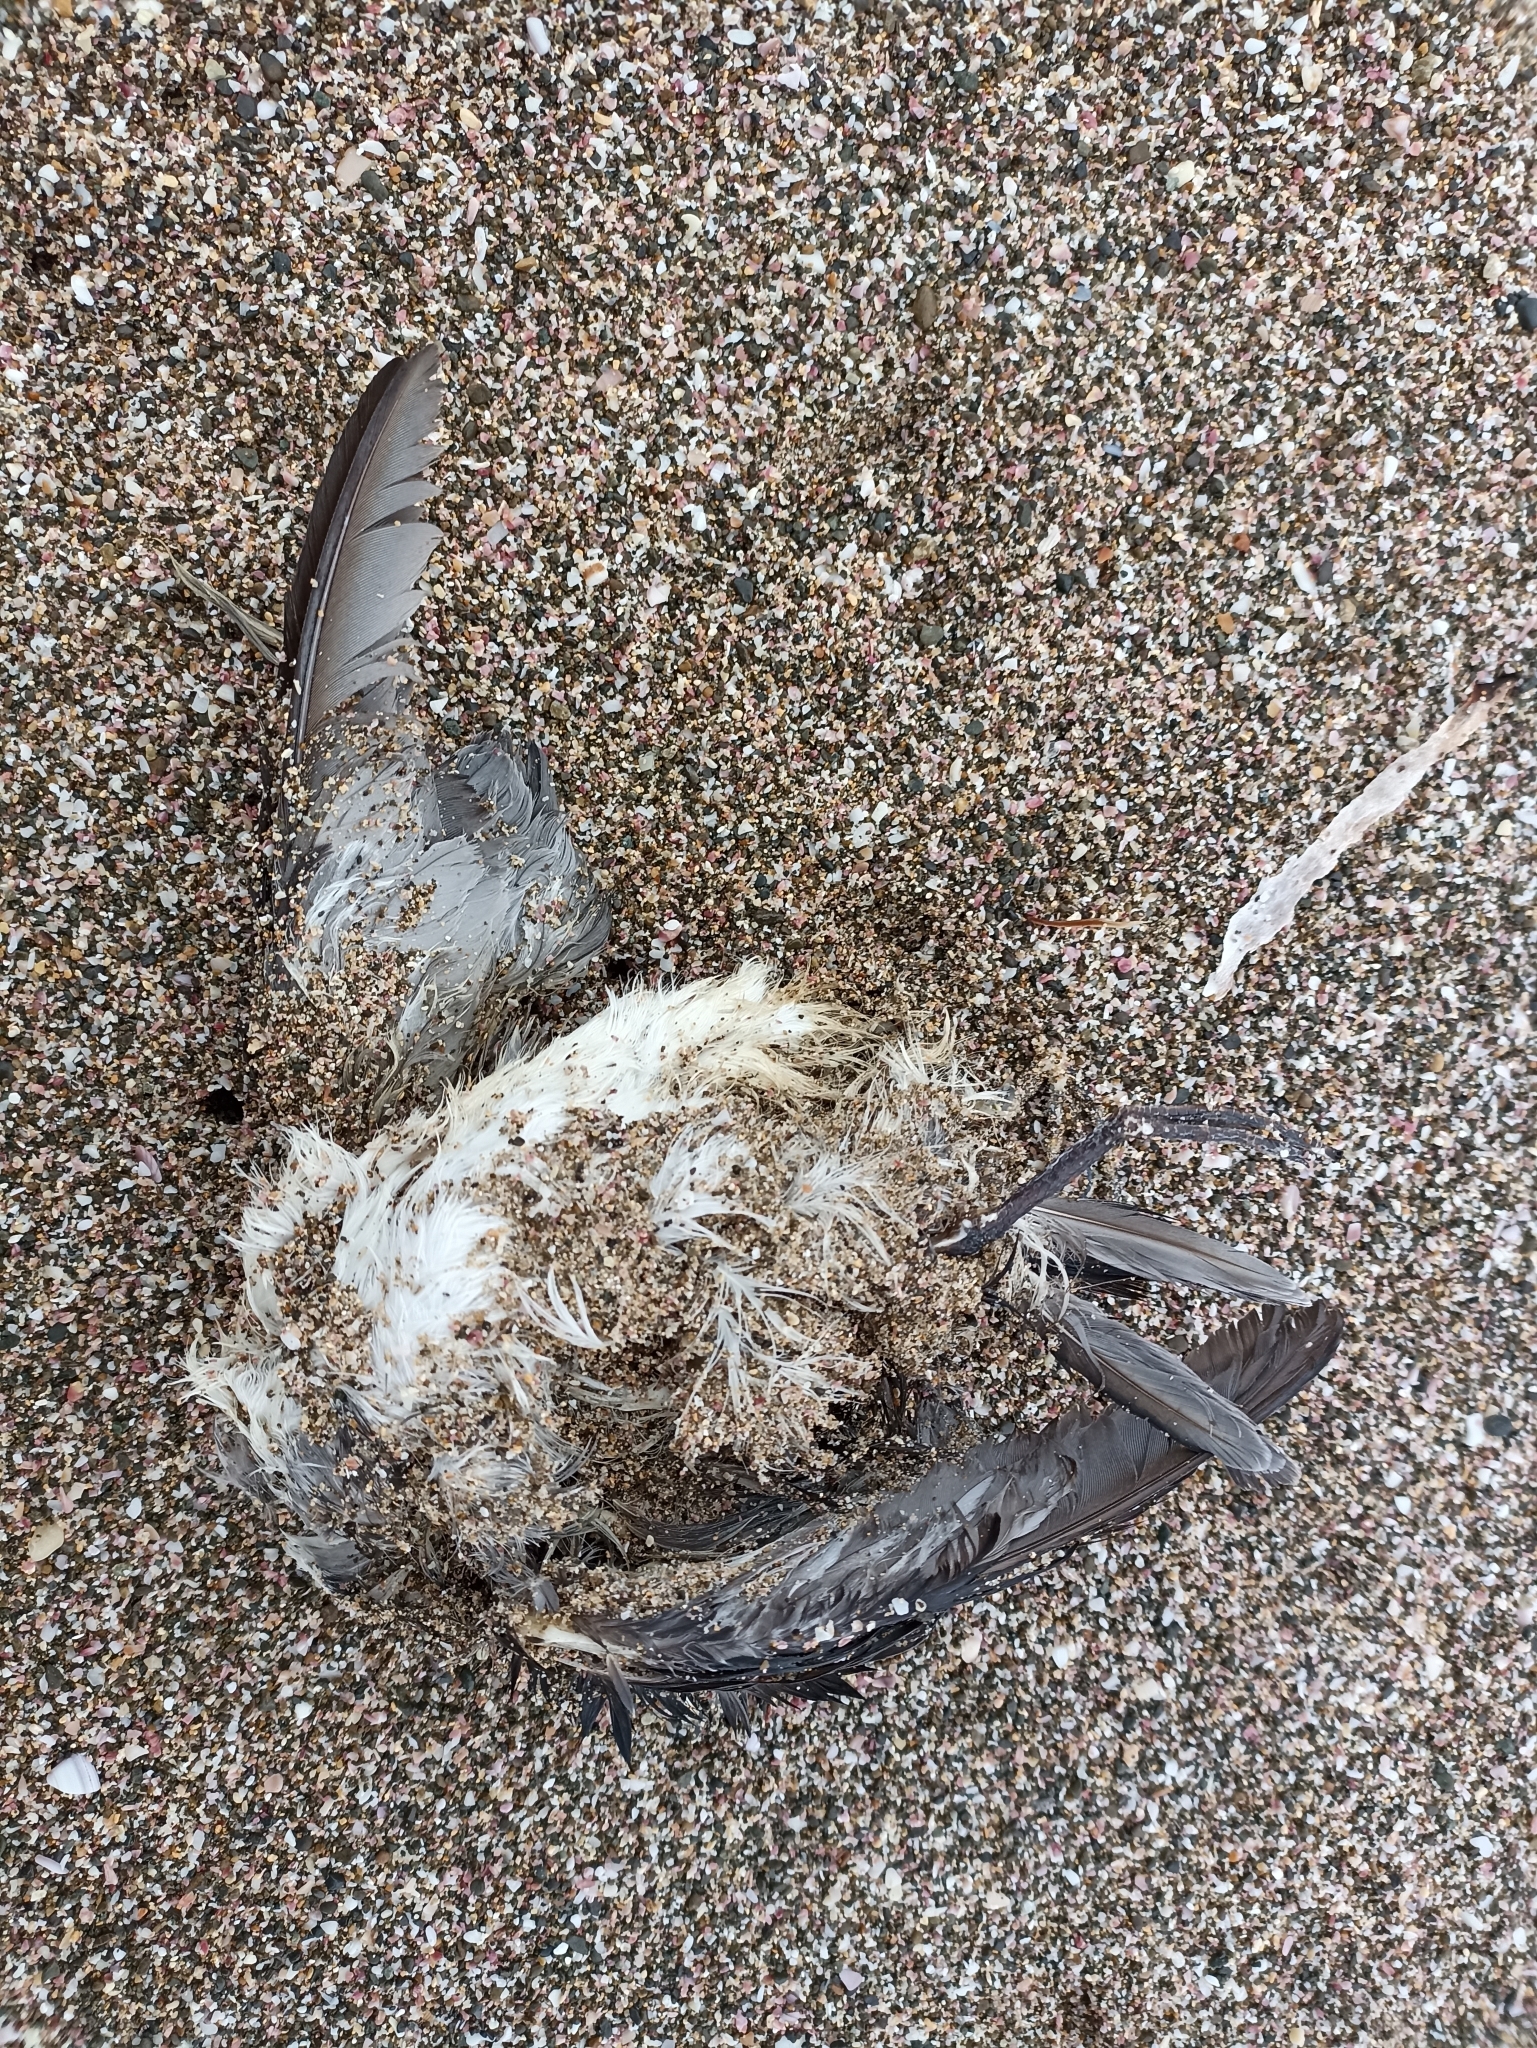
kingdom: Animalia
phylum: Chordata
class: Aves
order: Procellariiformes
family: Pelecanoididae
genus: Pelecanoides
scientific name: Pelecanoides urinatrix
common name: Common diving-petrel
